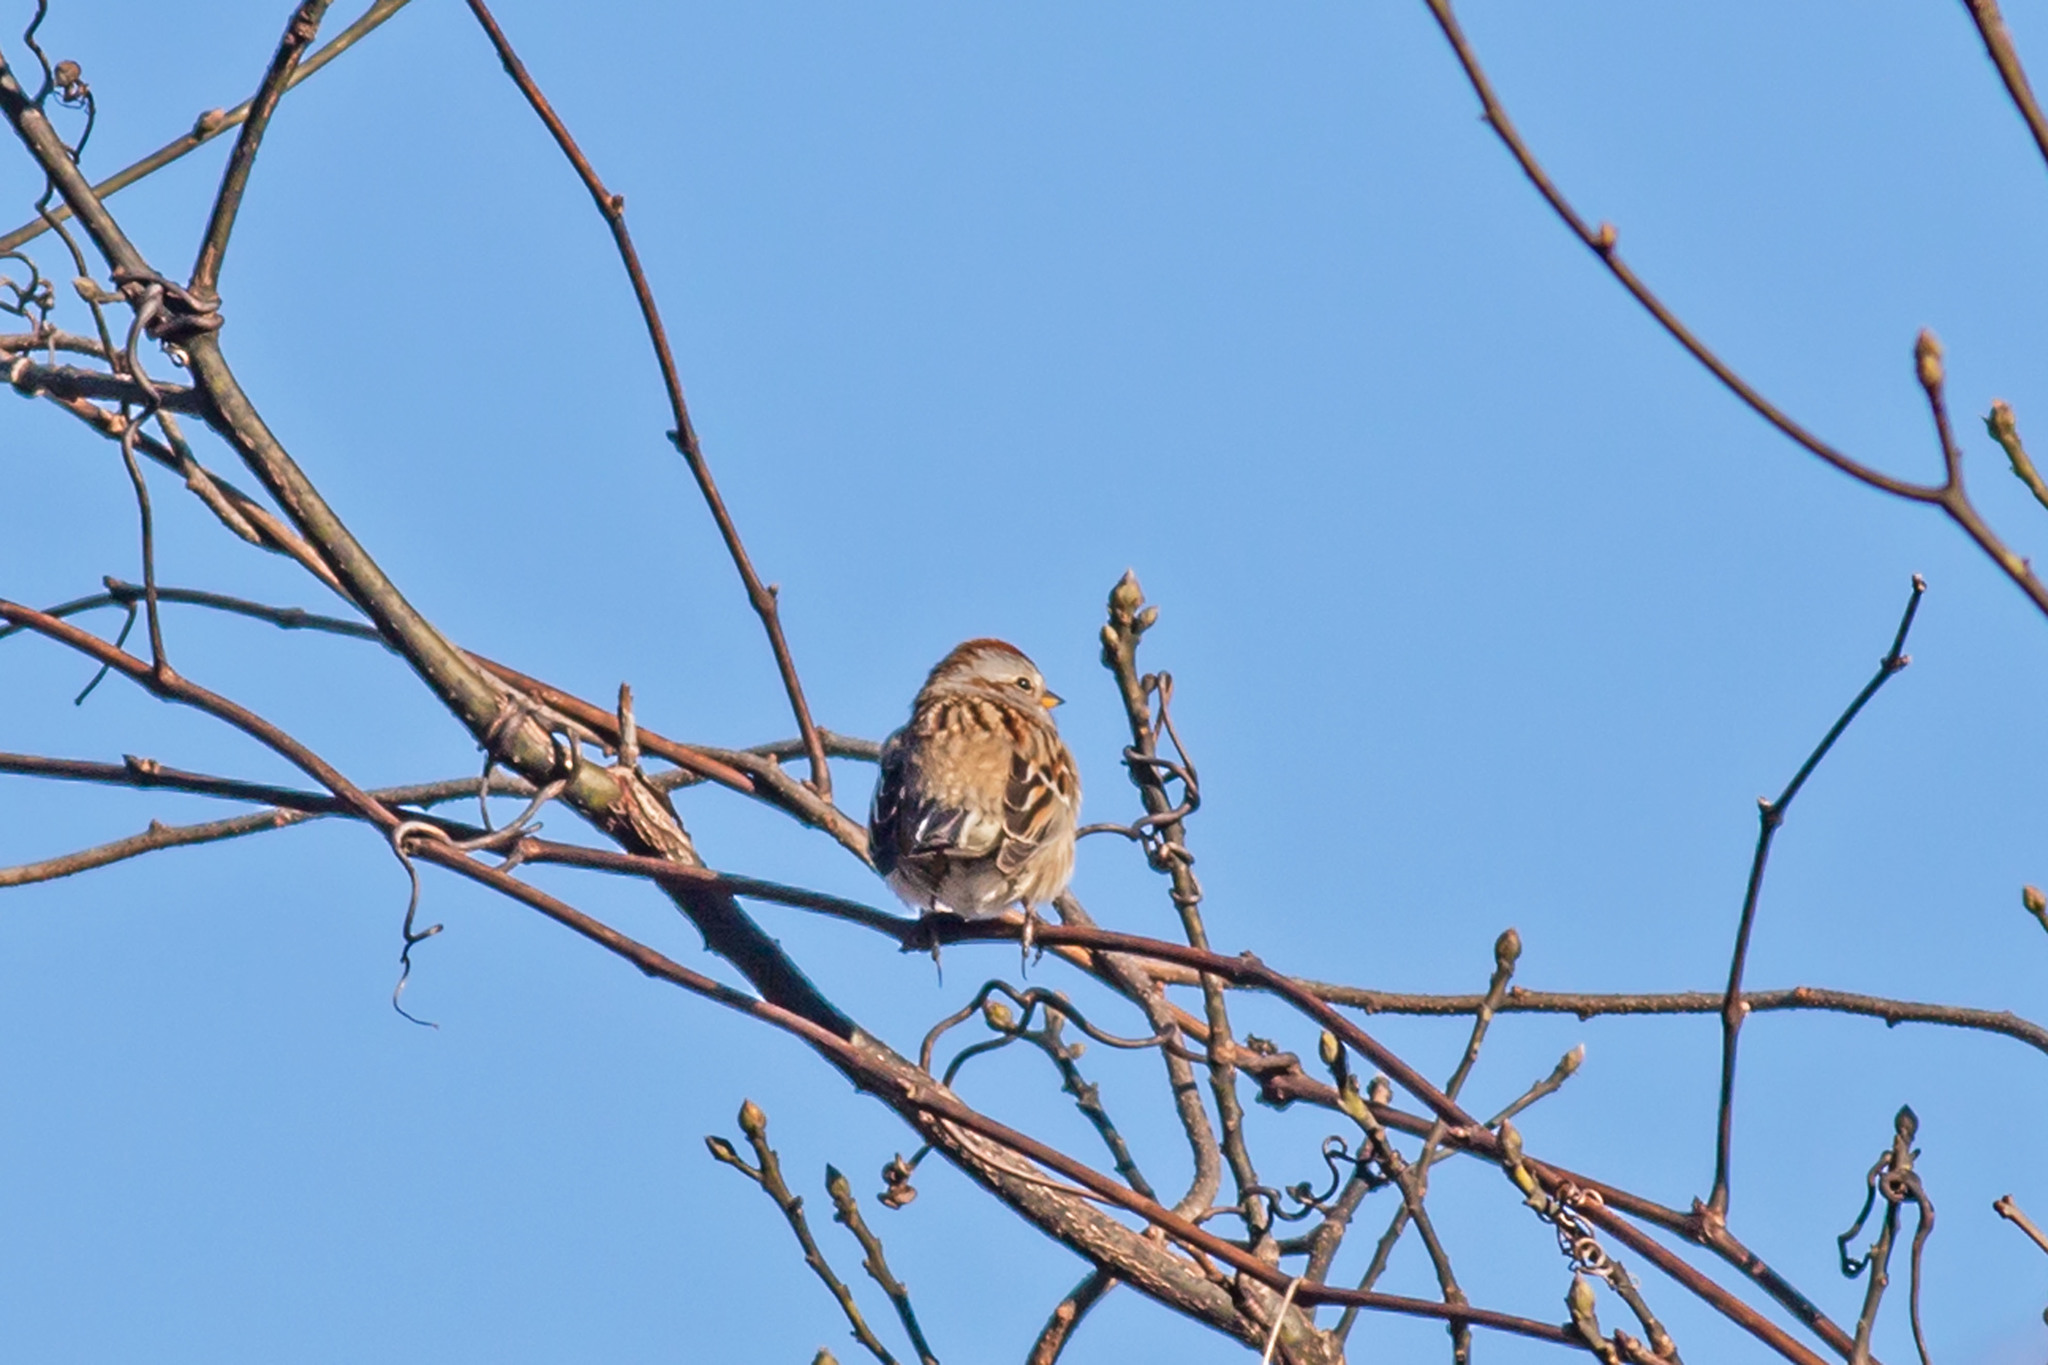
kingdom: Animalia
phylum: Chordata
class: Aves
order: Passeriformes
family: Passerellidae
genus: Spizelloides
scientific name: Spizelloides arborea
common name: American tree sparrow
